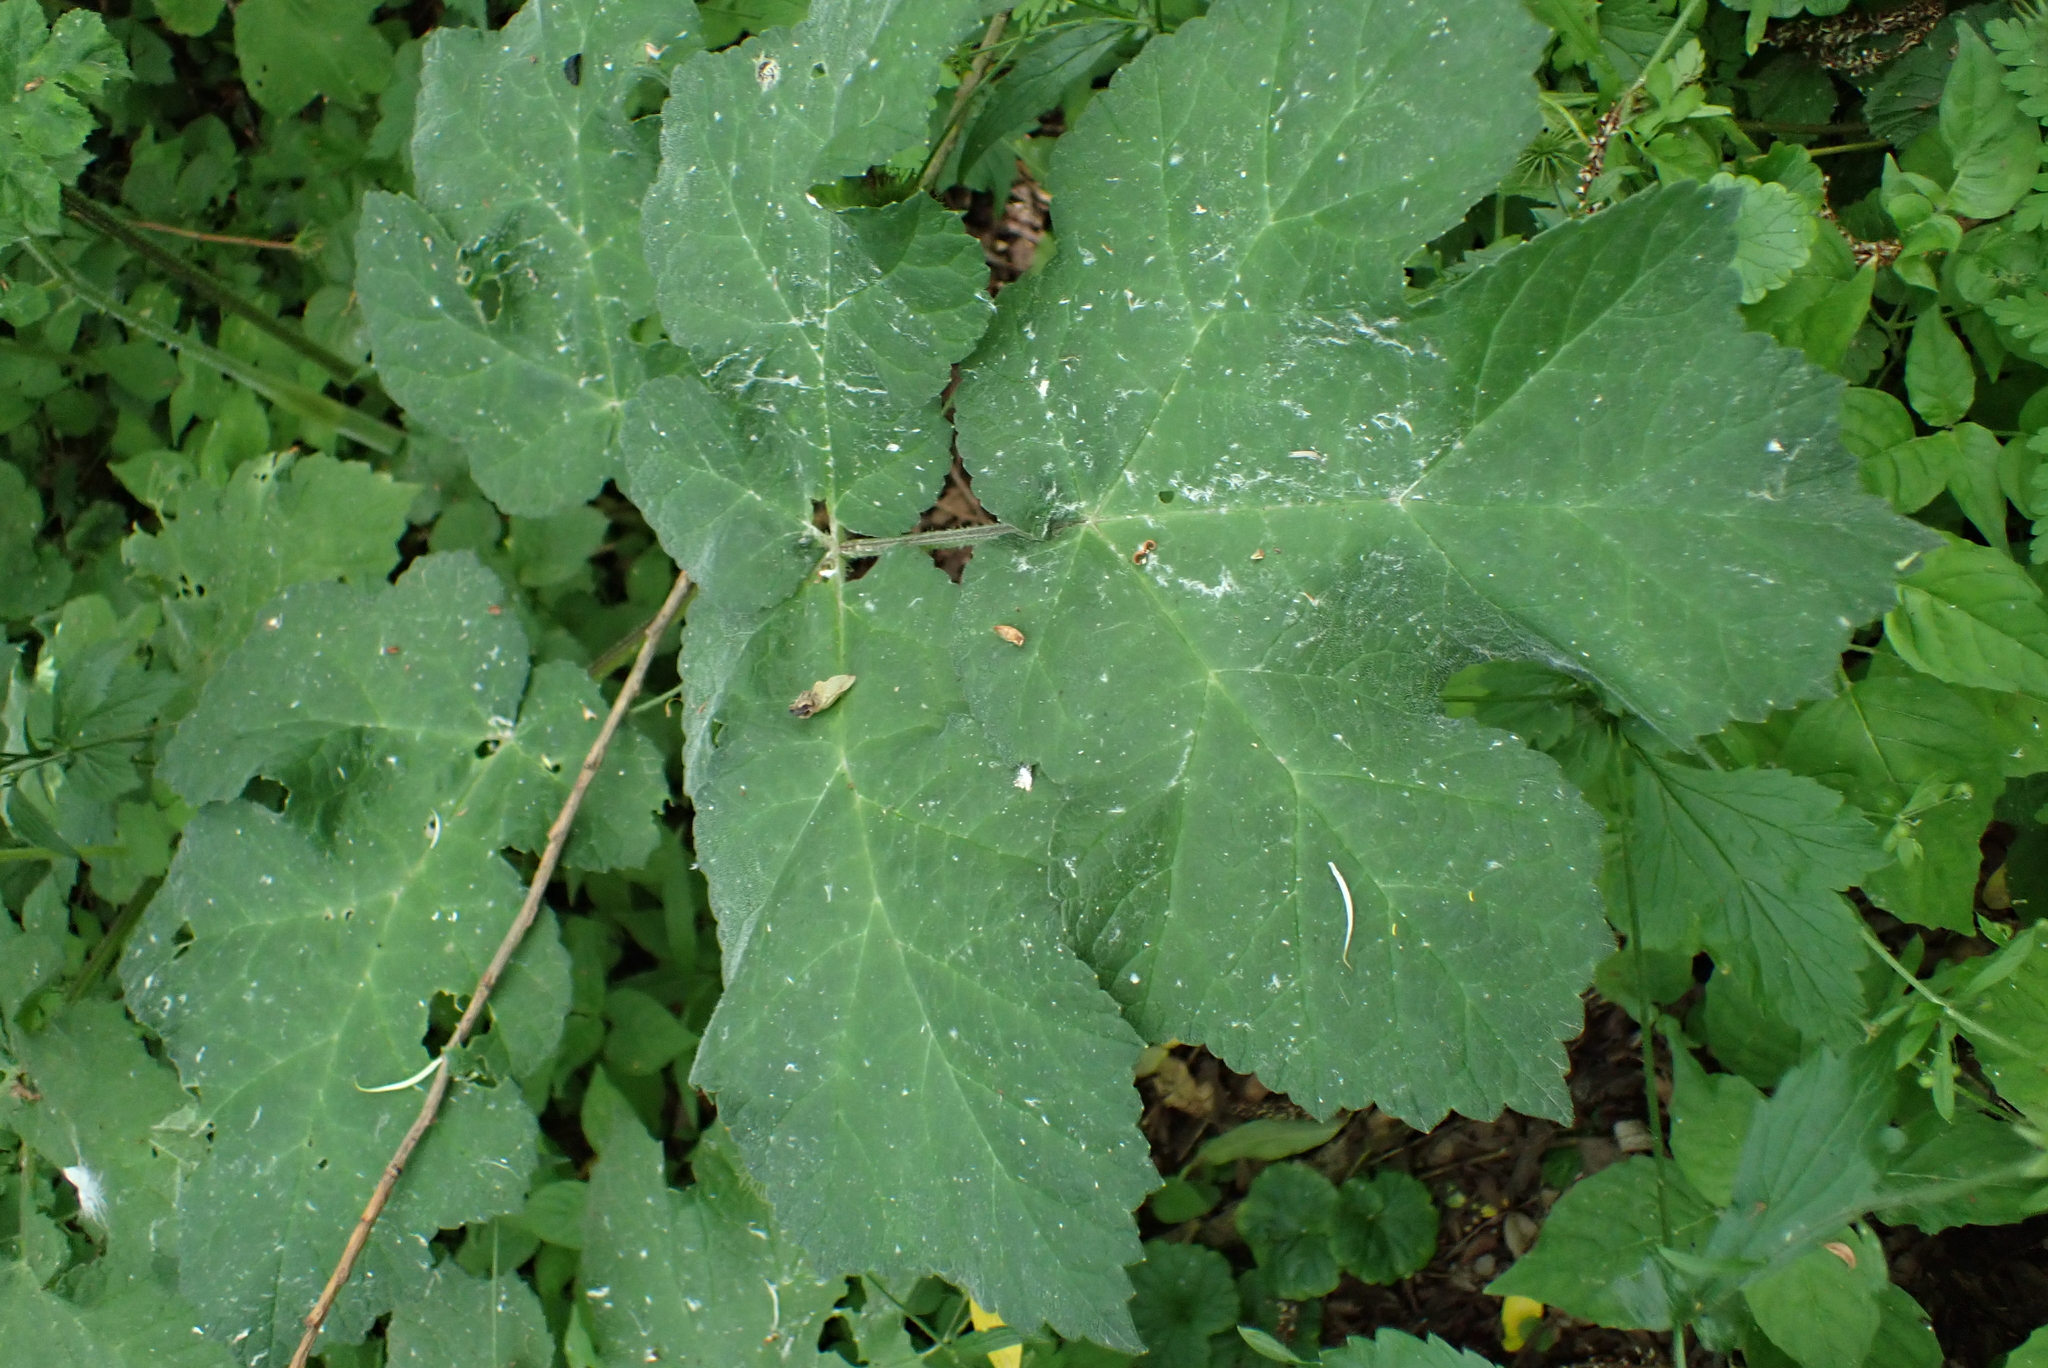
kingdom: Plantae
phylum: Tracheophyta
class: Magnoliopsida
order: Apiales
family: Apiaceae
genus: Heracleum
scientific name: Heracleum sphondylium
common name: Hogweed
